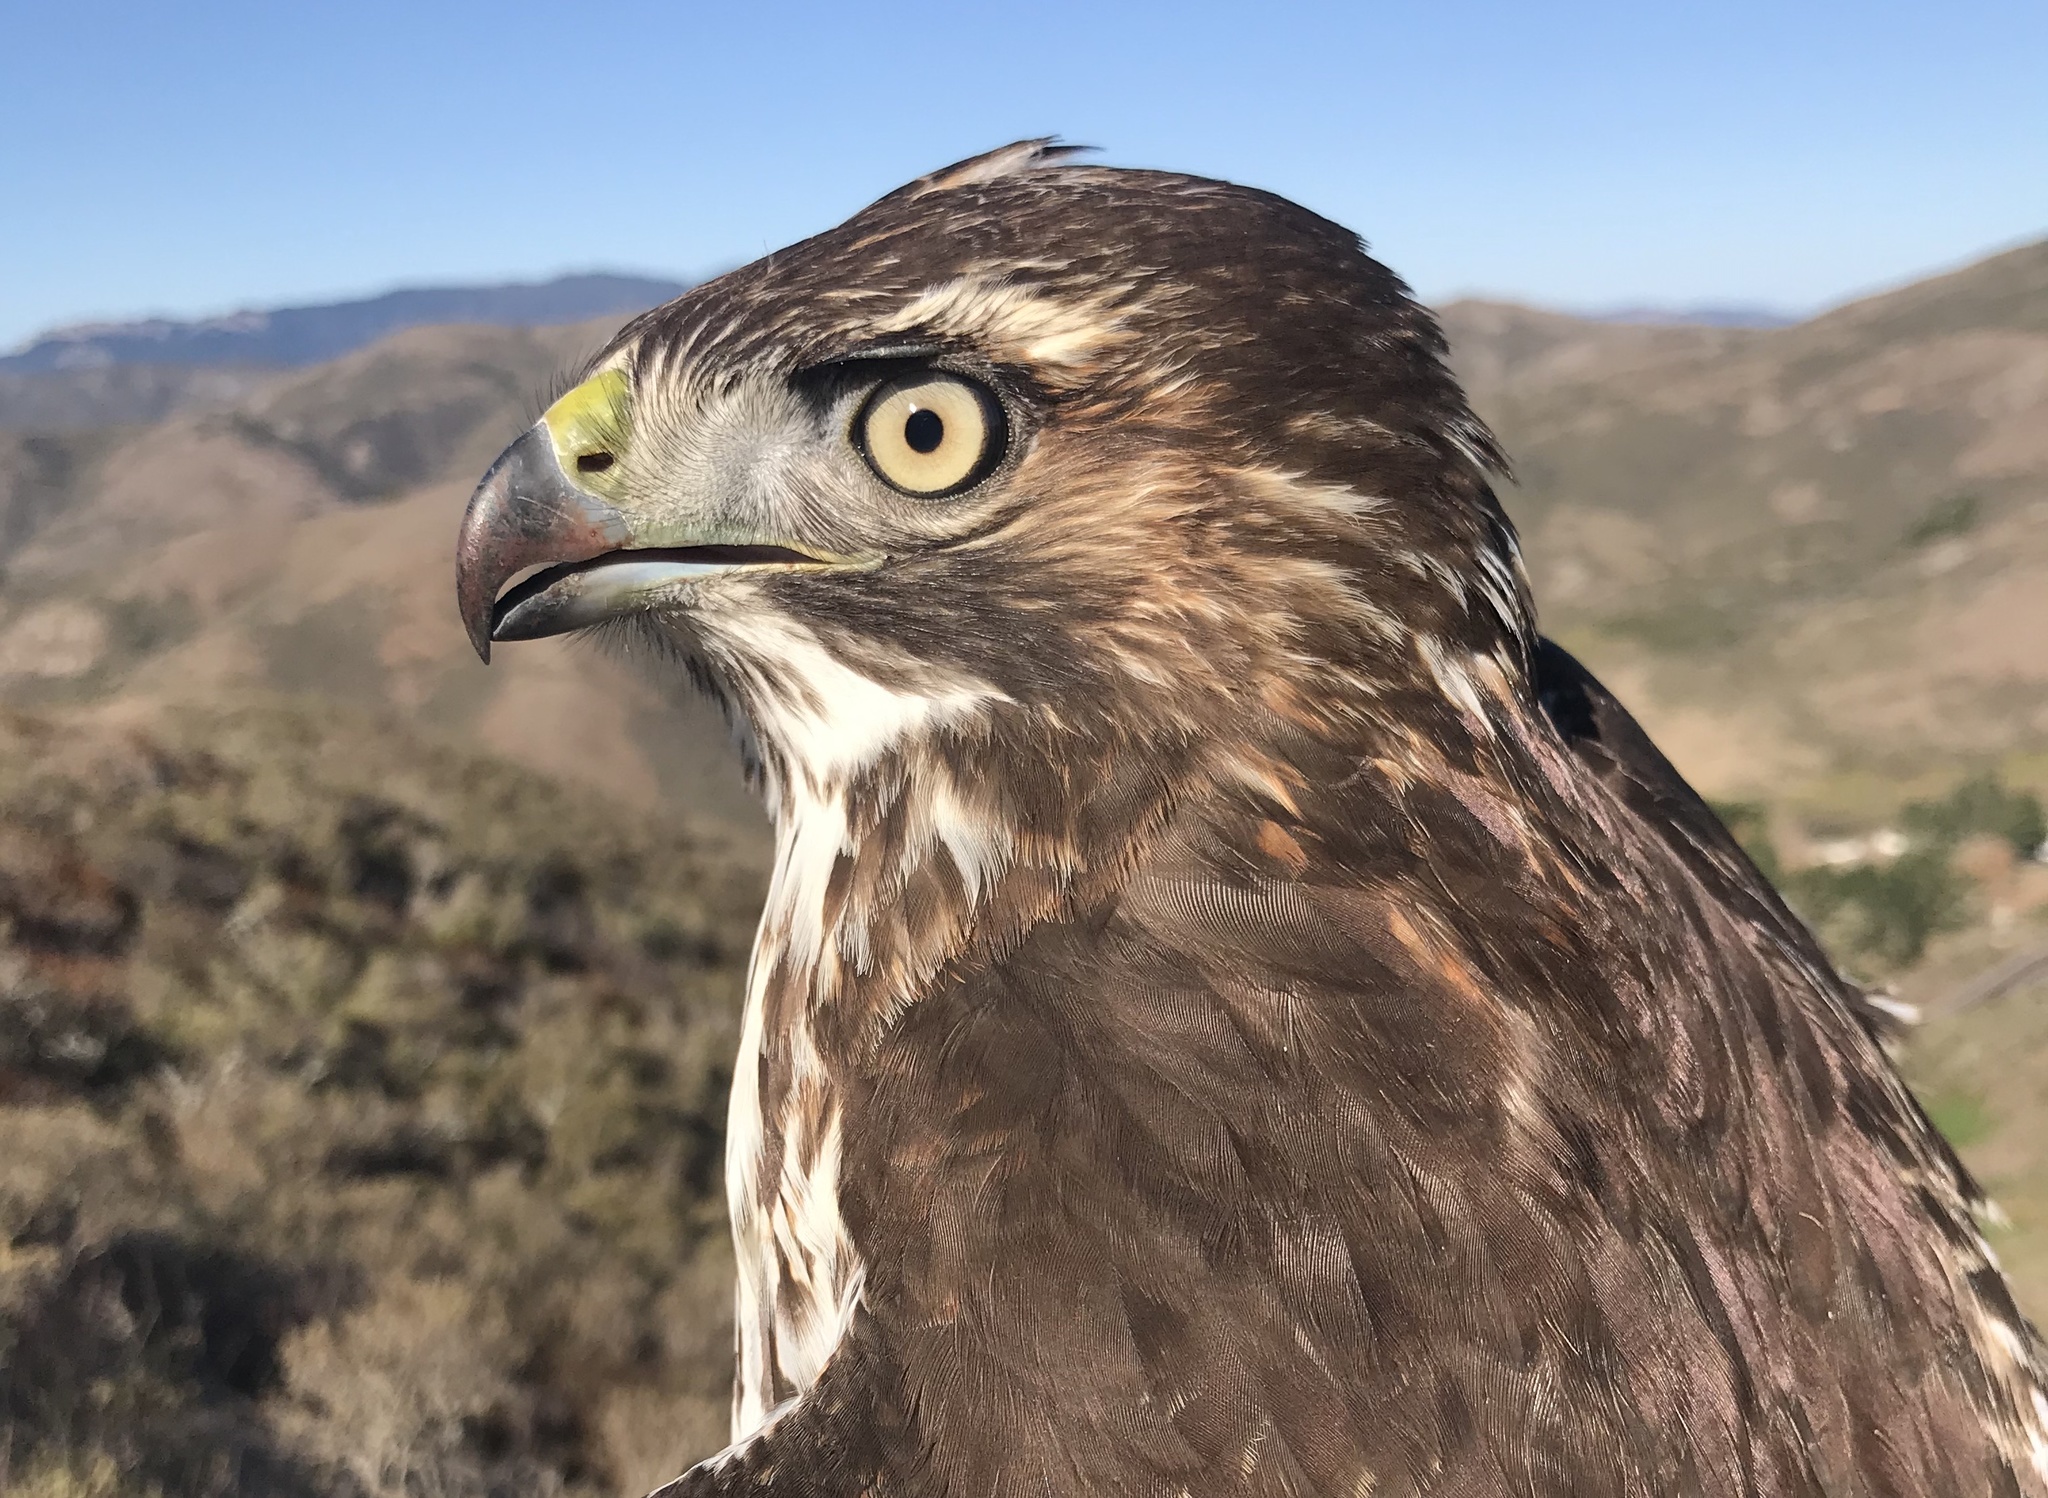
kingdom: Animalia
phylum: Chordata
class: Aves
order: Accipitriformes
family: Accipitridae
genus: Buteo
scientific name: Buteo jamaicensis
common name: Red-tailed hawk
